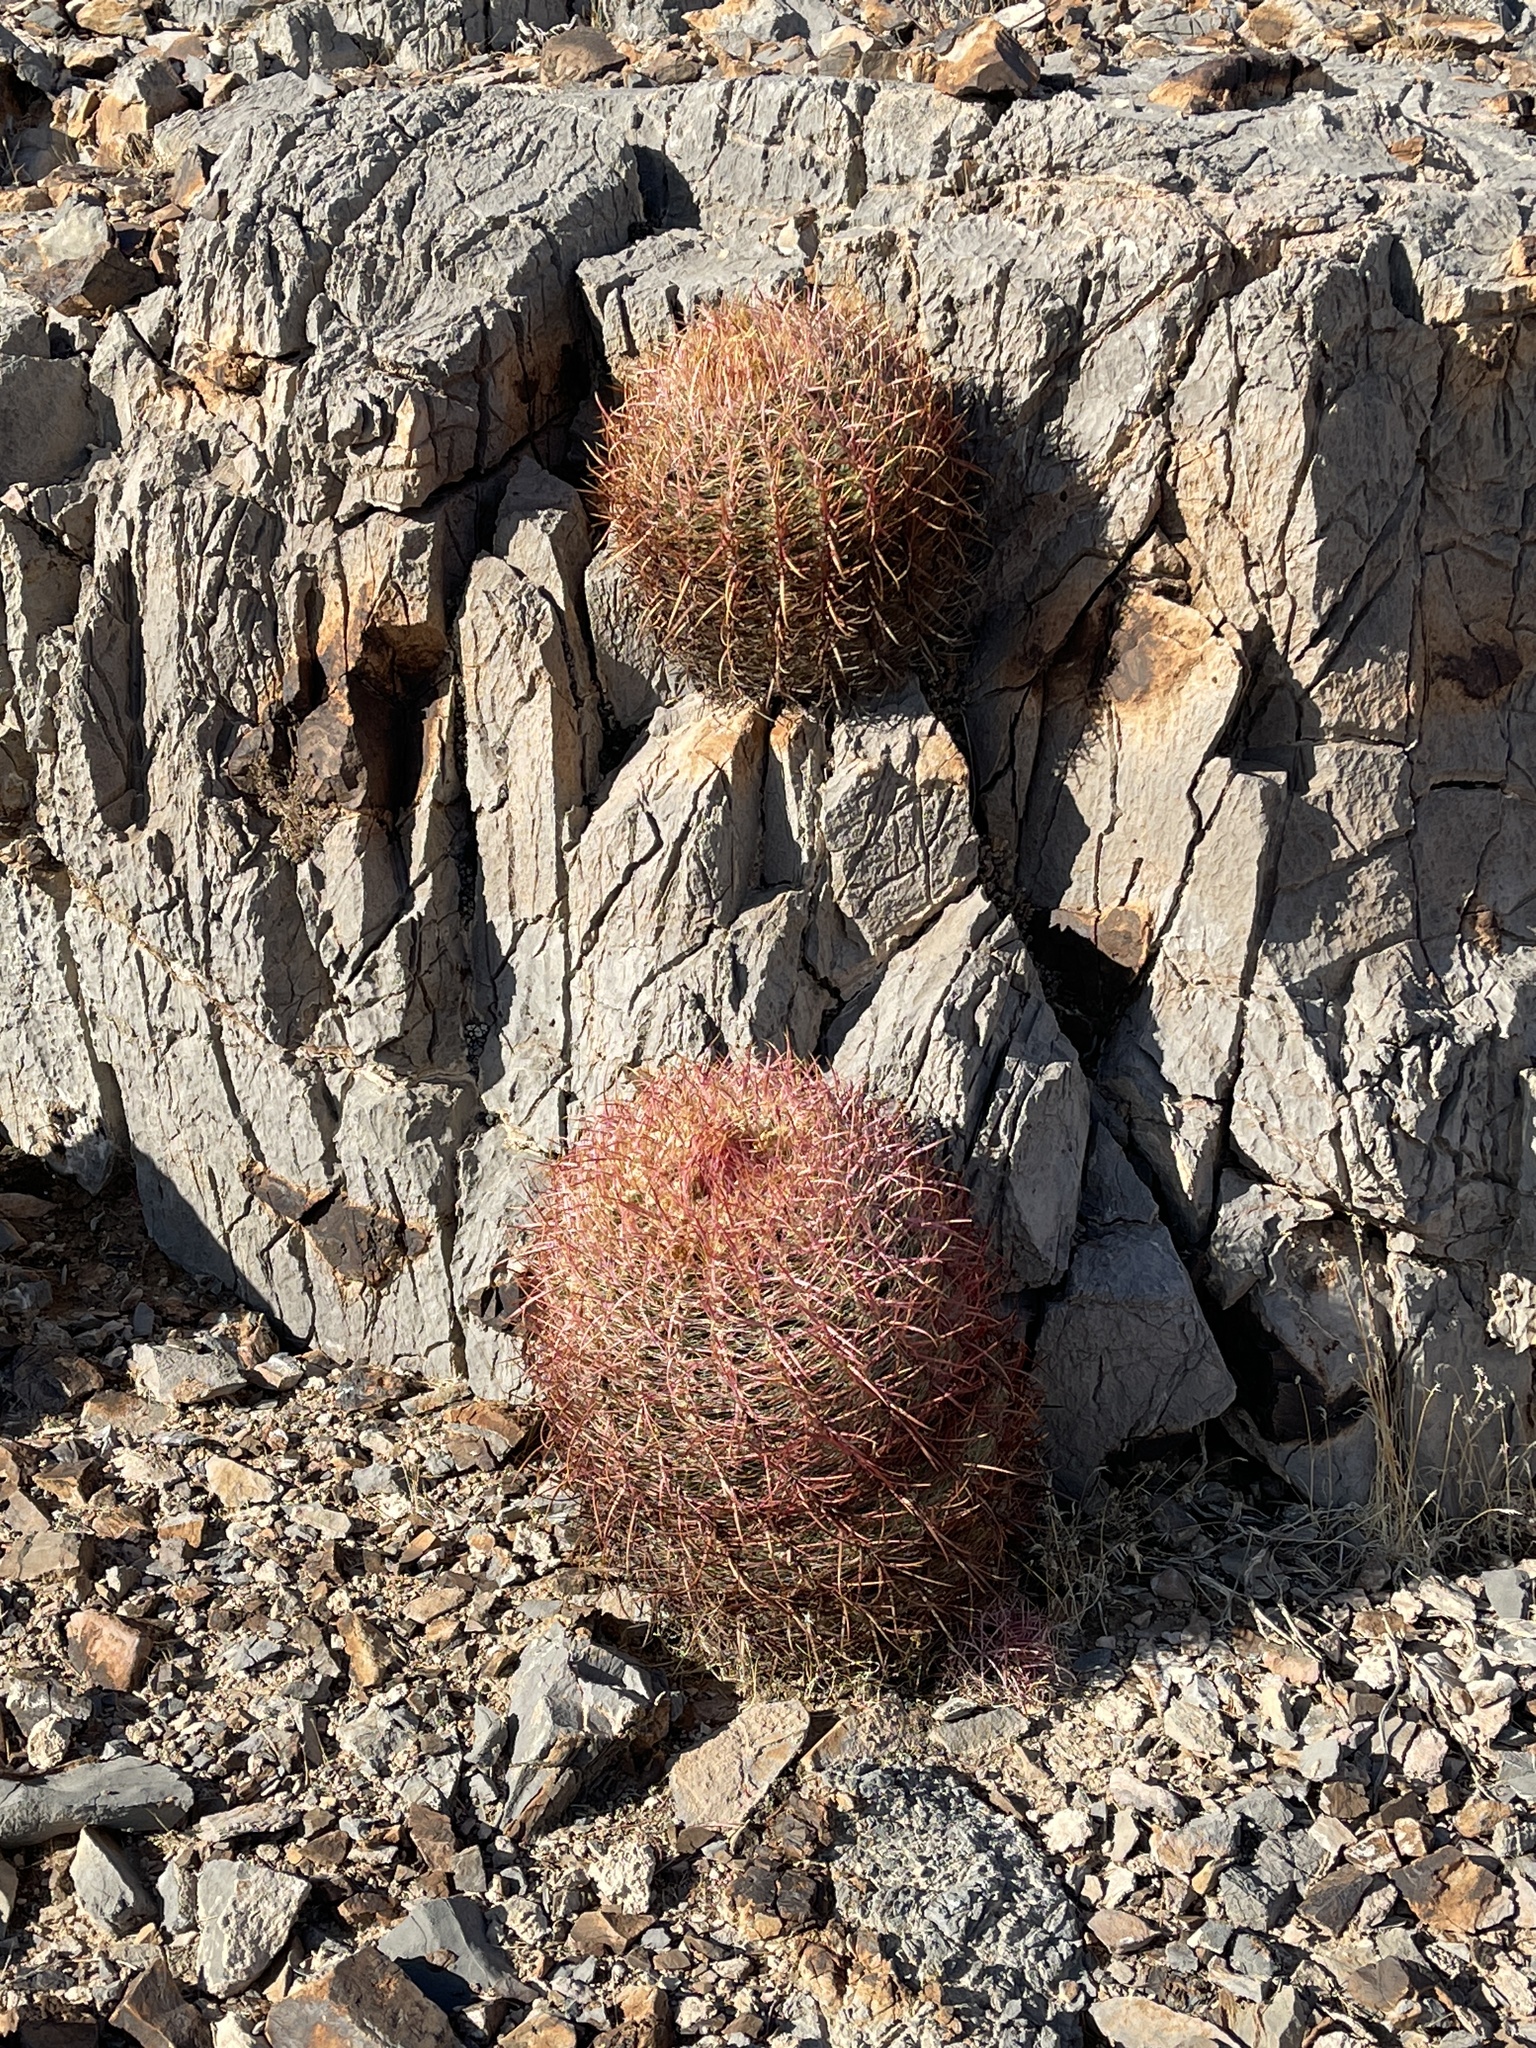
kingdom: Plantae
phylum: Tracheophyta
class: Magnoliopsida
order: Caryophyllales
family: Cactaceae
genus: Ferocactus
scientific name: Ferocactus cylindraceus
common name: California barrel cactus
